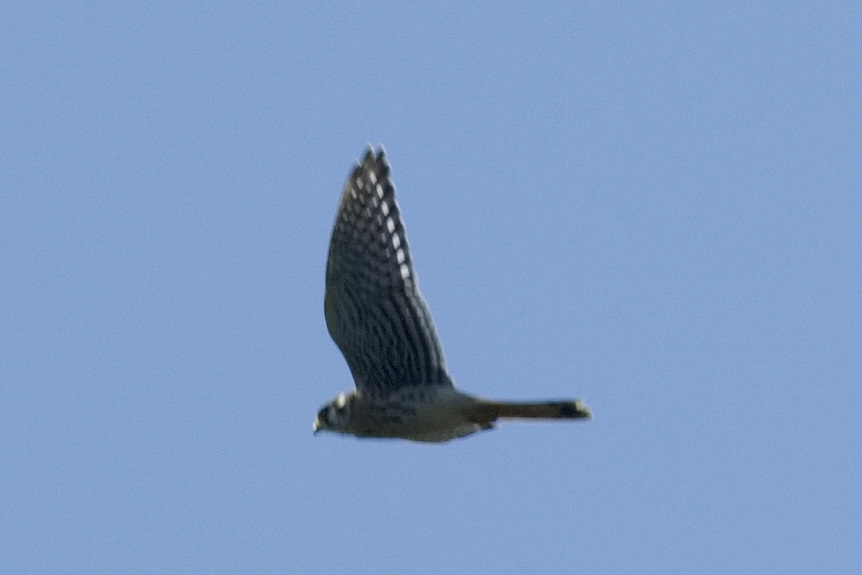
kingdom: Animalia
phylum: Chordata
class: Aves
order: Falconiformes
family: Falconidae
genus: Falco
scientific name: Falco sparverius
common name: American kestrel
